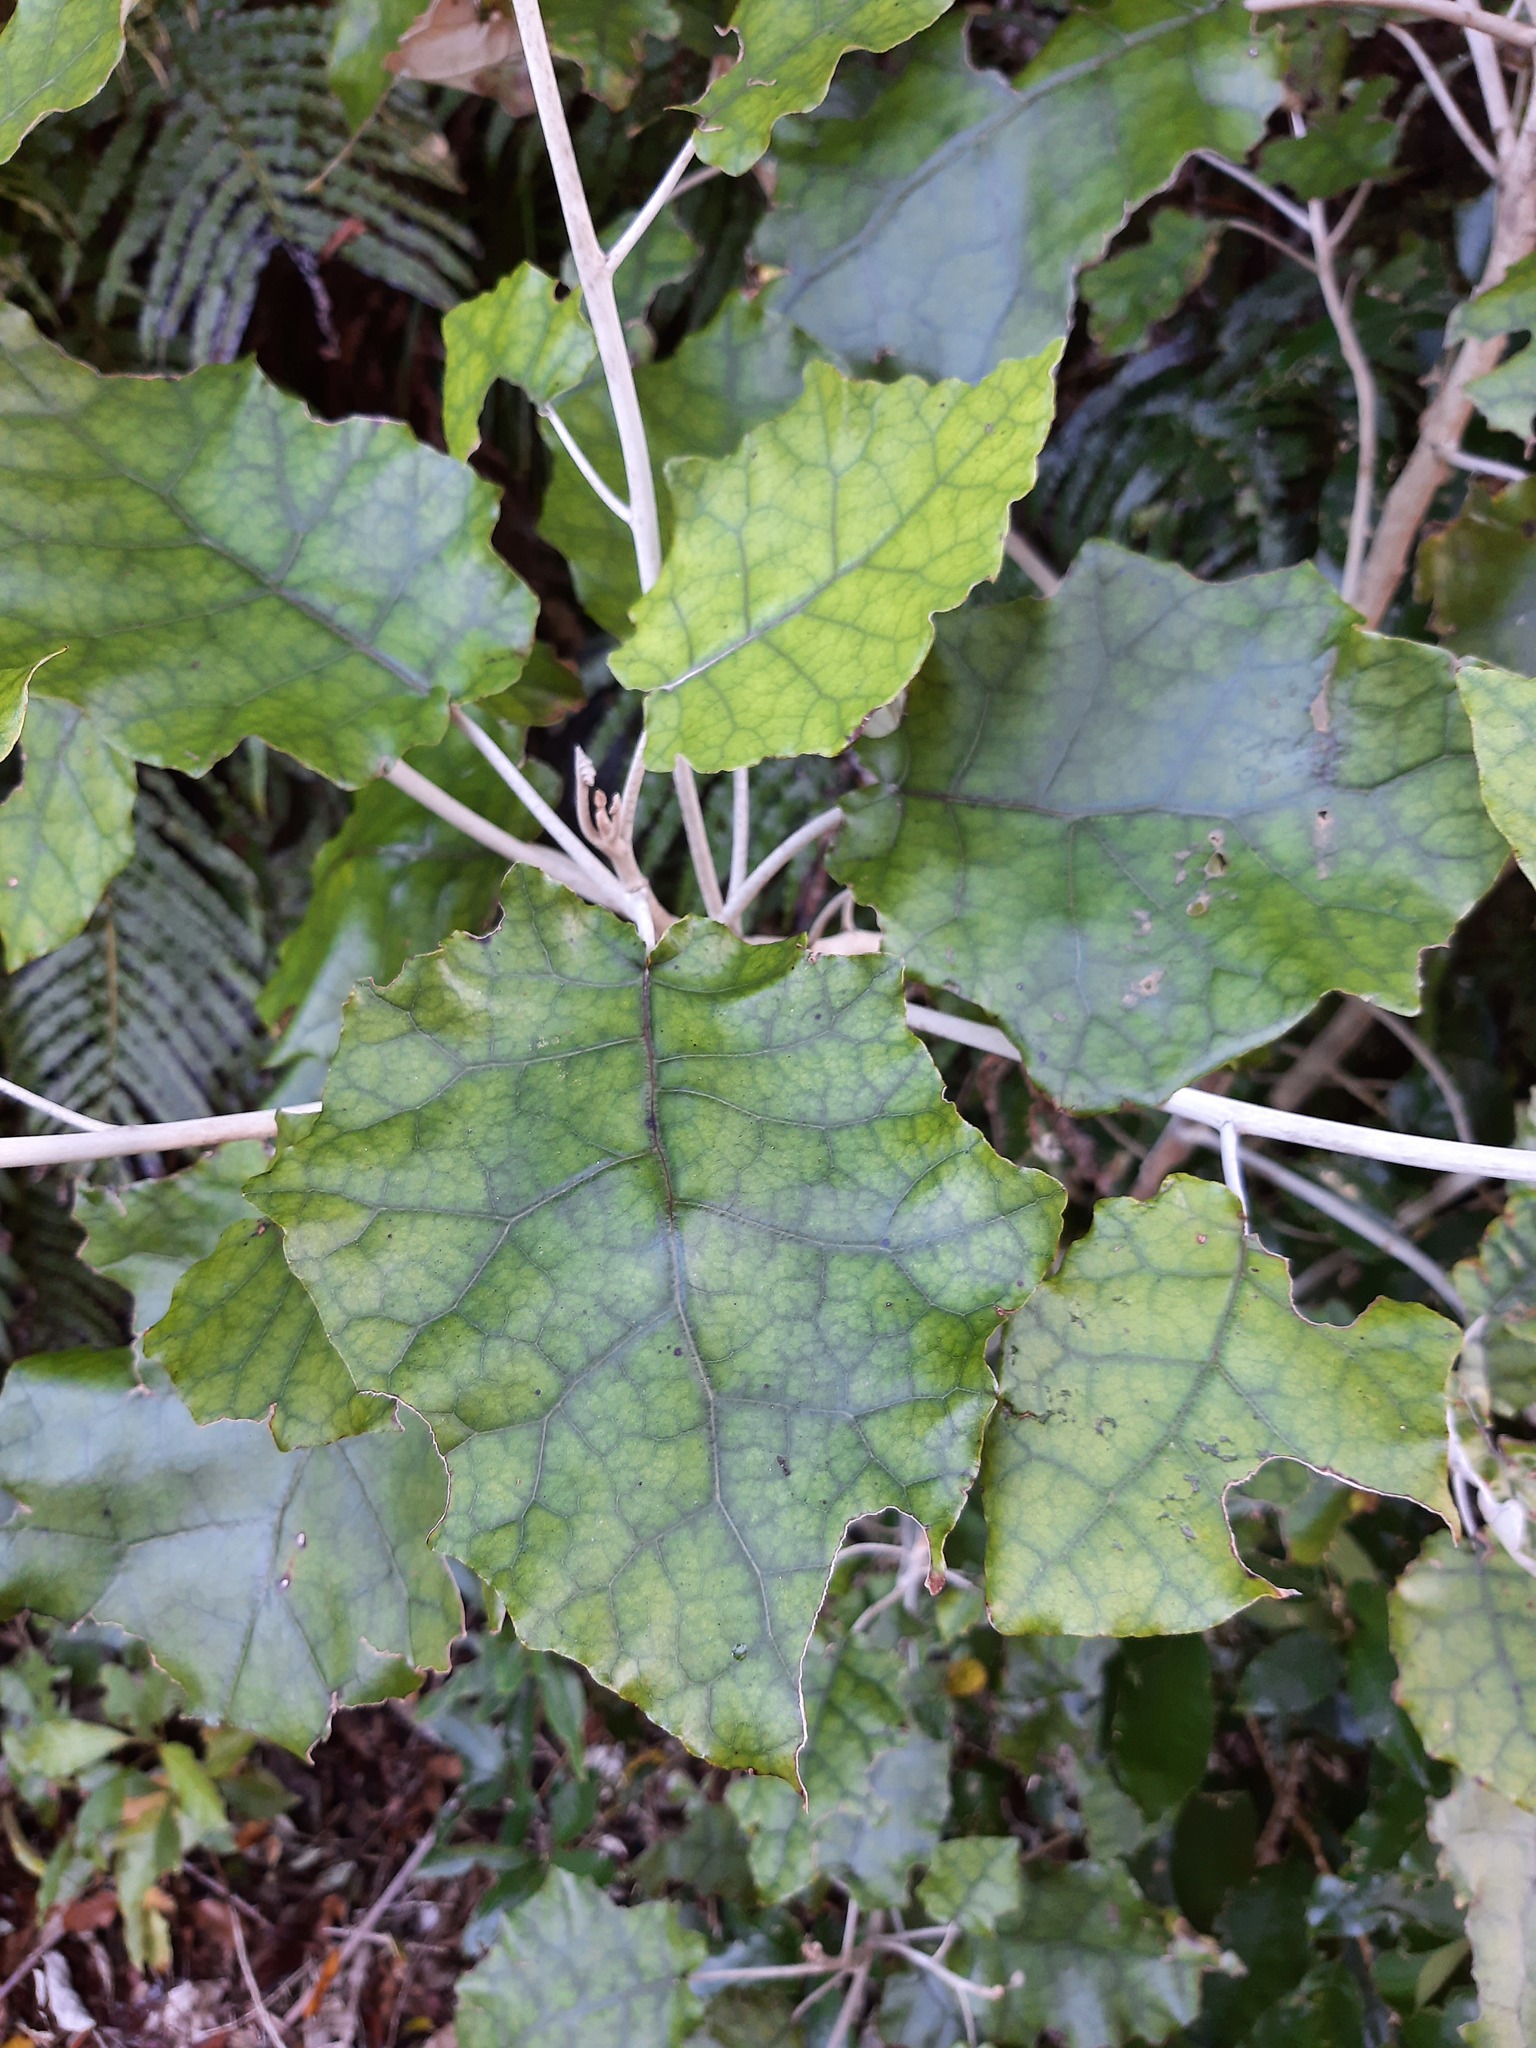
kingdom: Plantae
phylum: Tracheophyta
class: Magnoliopsida
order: Asterales
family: Asteraceae
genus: Brachyglottis
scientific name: Brachyglottis repanda
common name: Hedge ragwort
